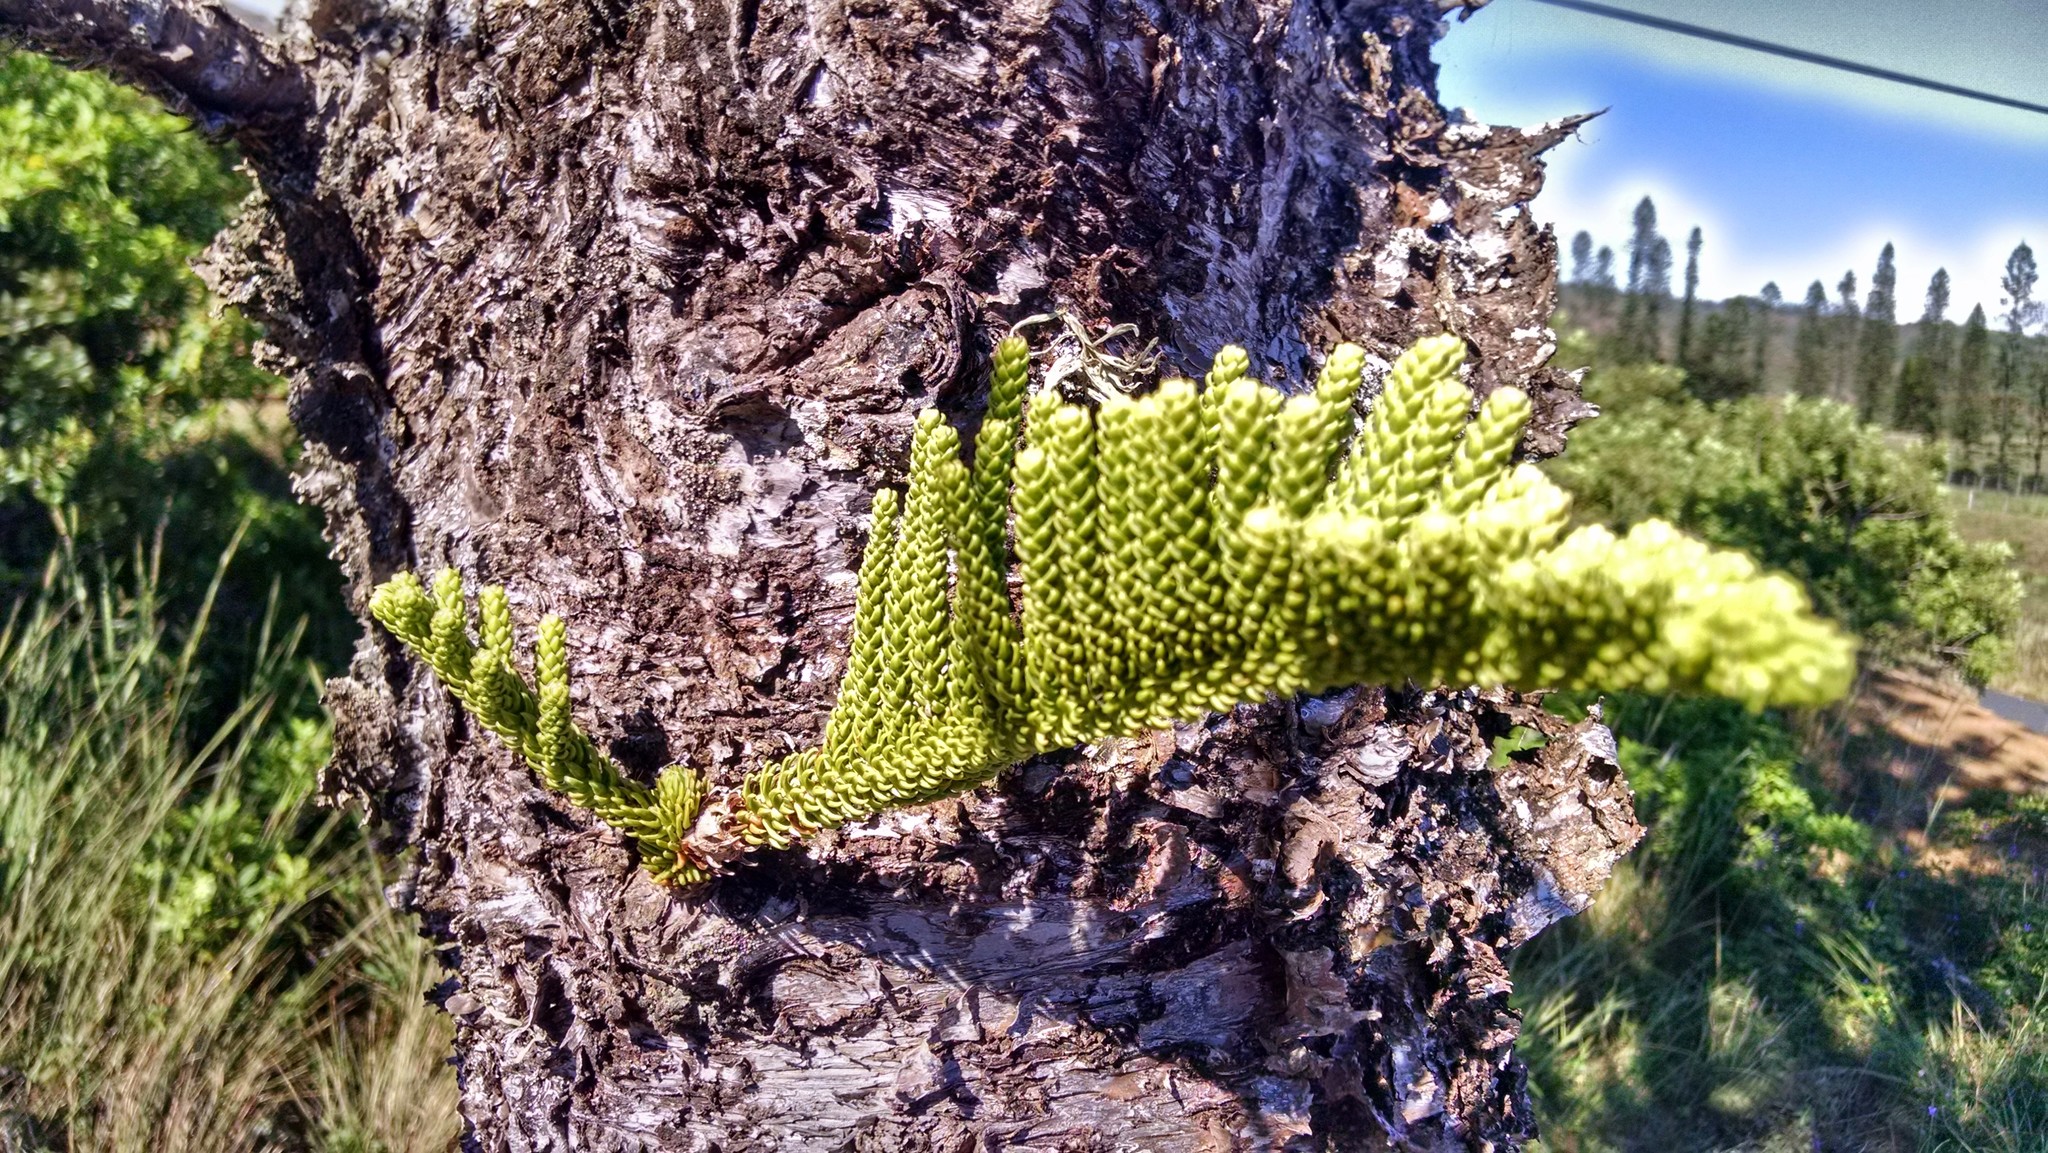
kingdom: Plantae
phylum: Tracheophyta
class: Pinopsida
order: Pinales
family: Araucariaceae
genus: Araucaria
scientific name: Araucaria columnaris
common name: Coral reef araucaria
